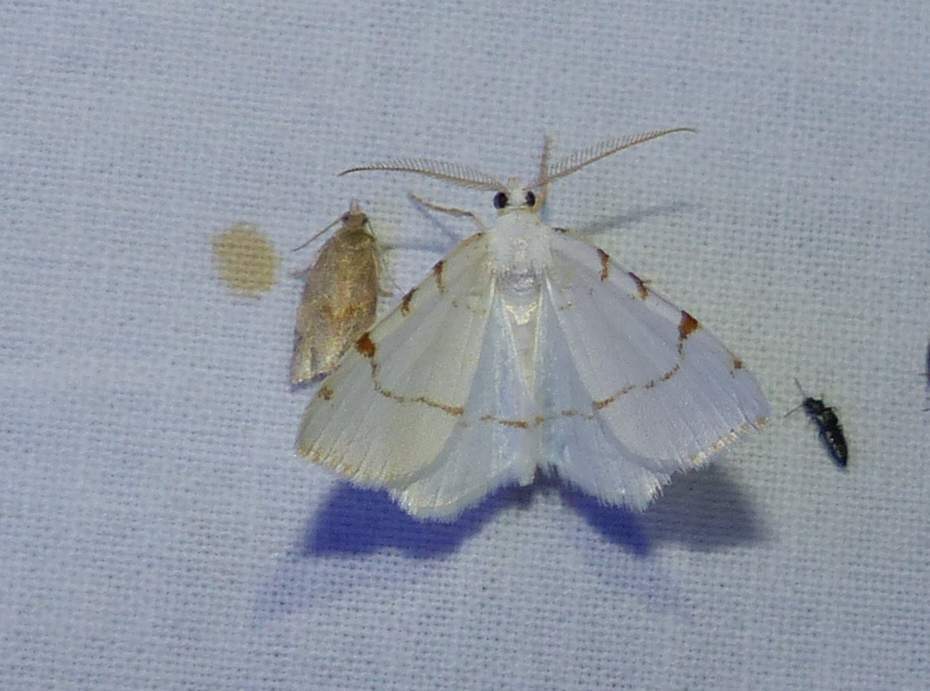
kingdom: Animalia
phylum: Arthropoda
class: Insecta
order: Lepidoptera
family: Geometridae
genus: Macaria
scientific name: Macaria pustularia
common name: Lesser maple spanworm moth
